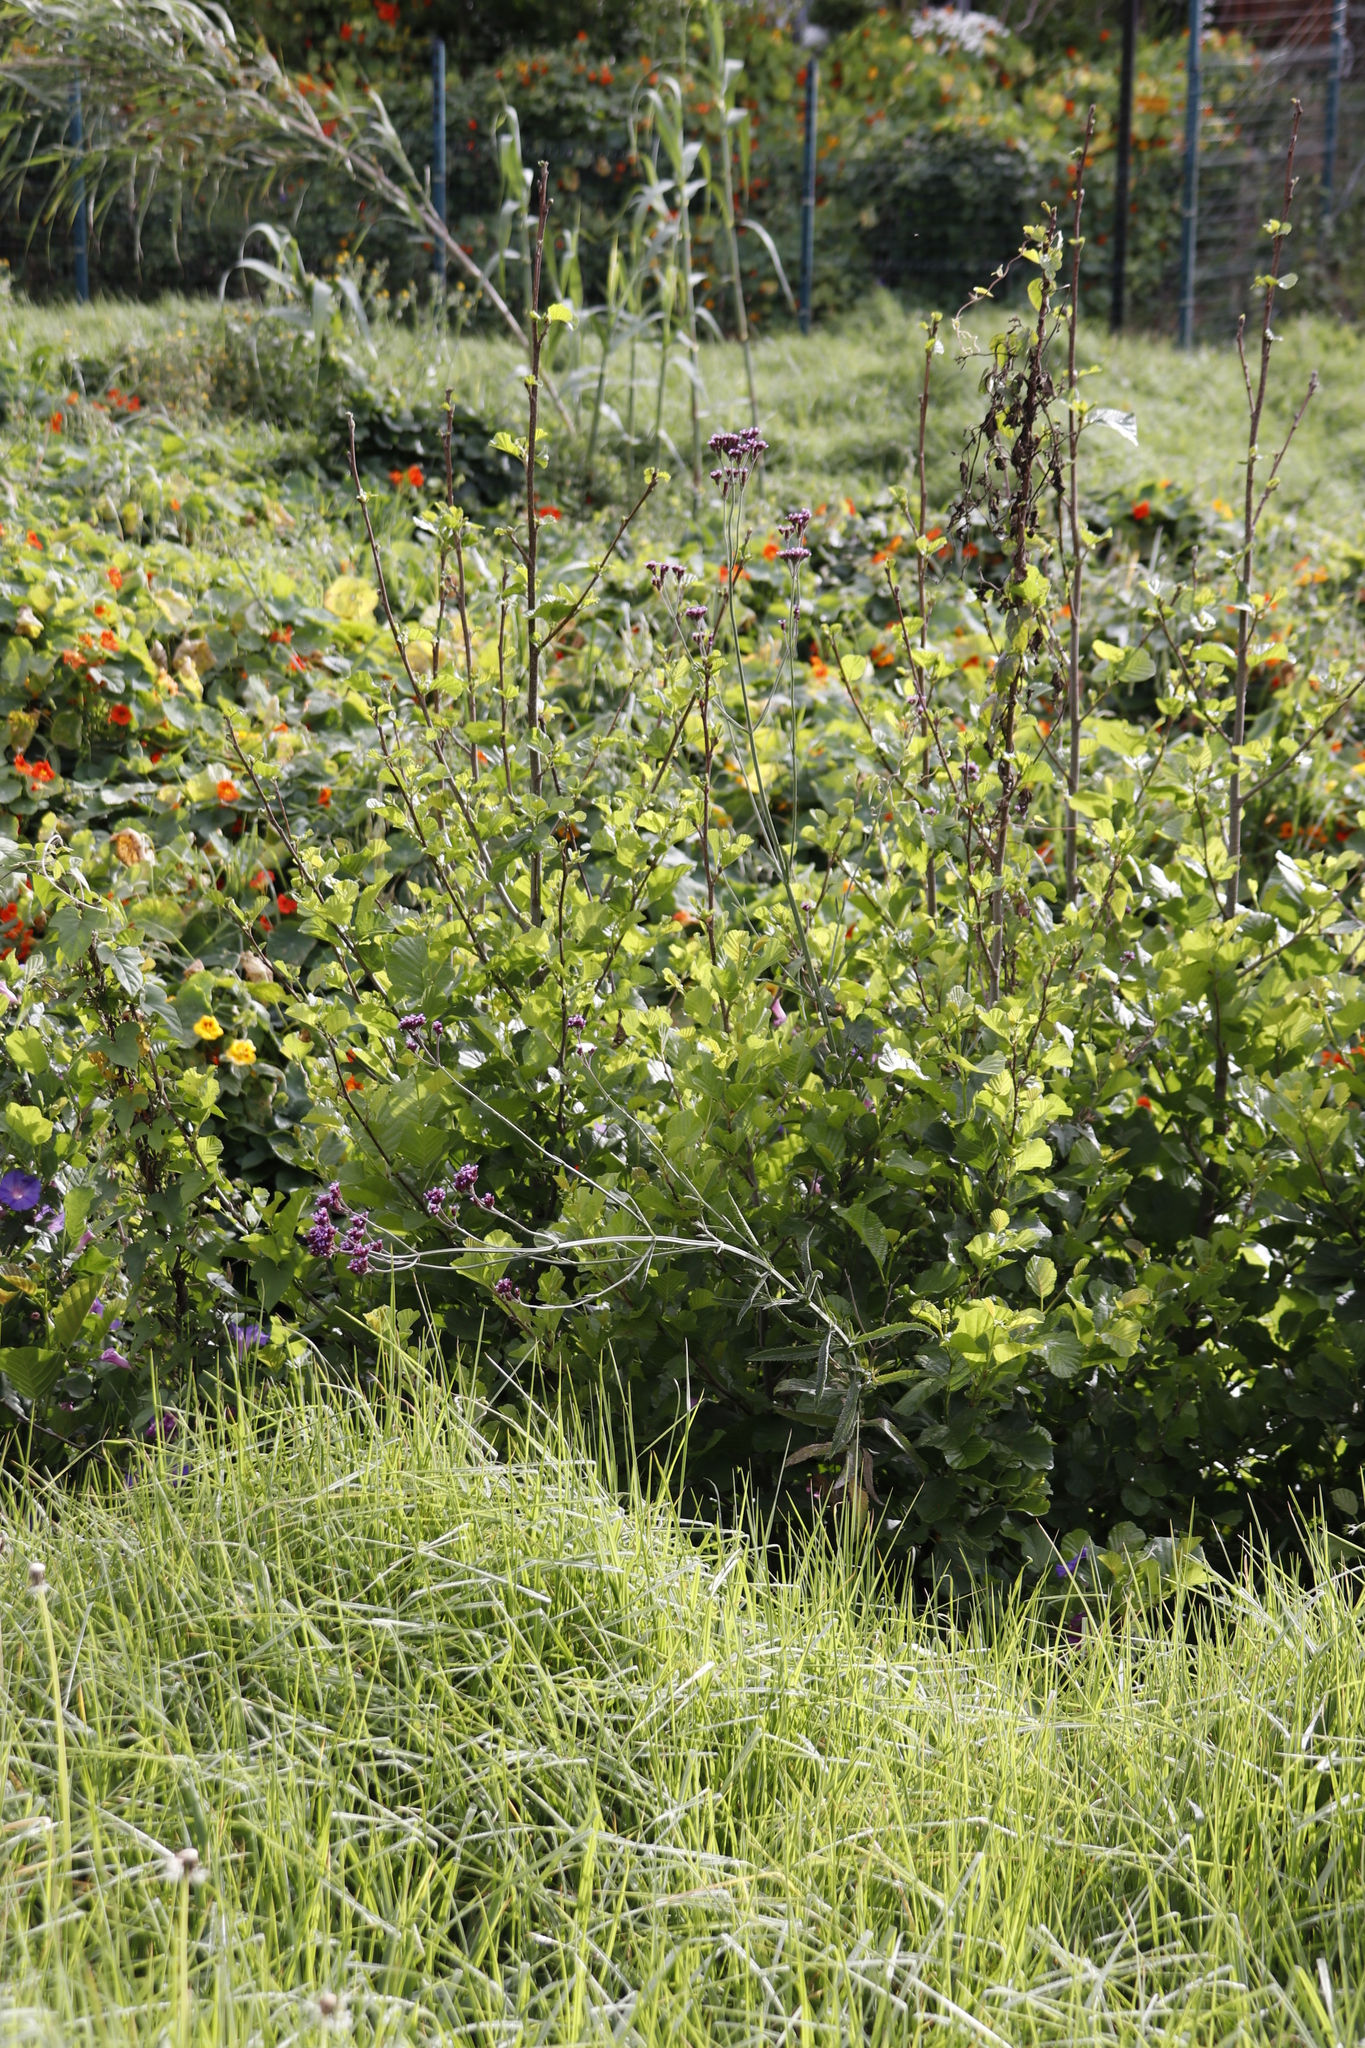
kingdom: Plantae
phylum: Tracheophyta
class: Magnoliopsida
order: Fagales
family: Betulaceae
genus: Alnus
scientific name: Alnus glutinosa
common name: Black alder
